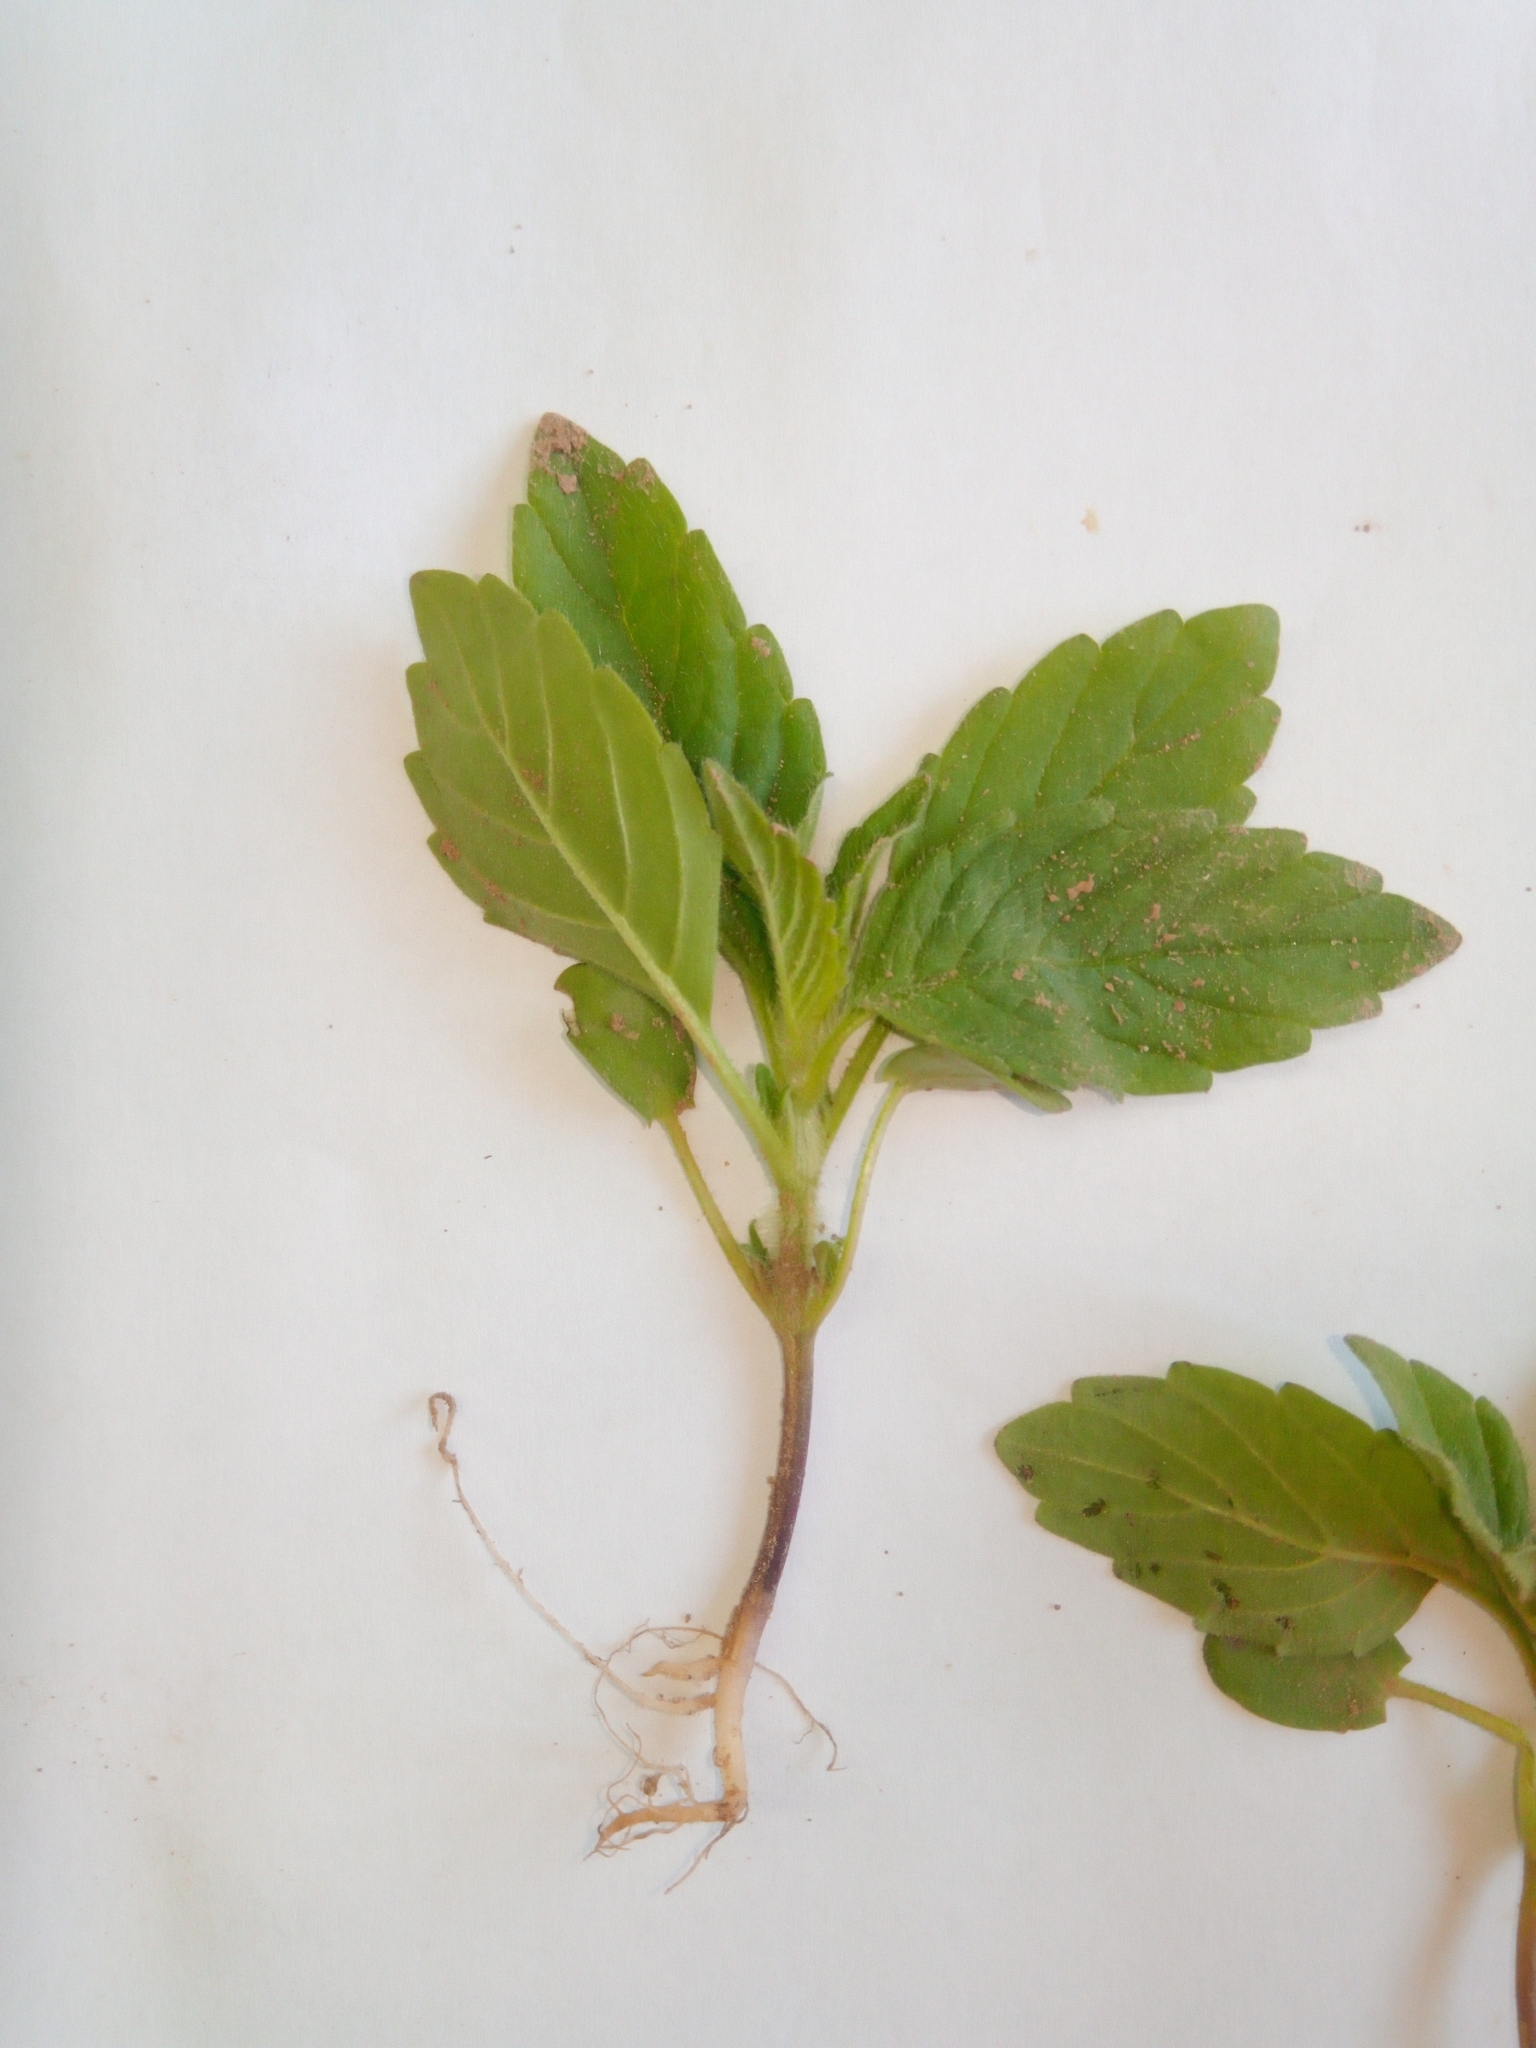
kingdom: Plantae
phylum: Tracheophyta
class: Magnoliopsida
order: Lamiales
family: Lamiaceae
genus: Galeopsis
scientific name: Galeopsis
